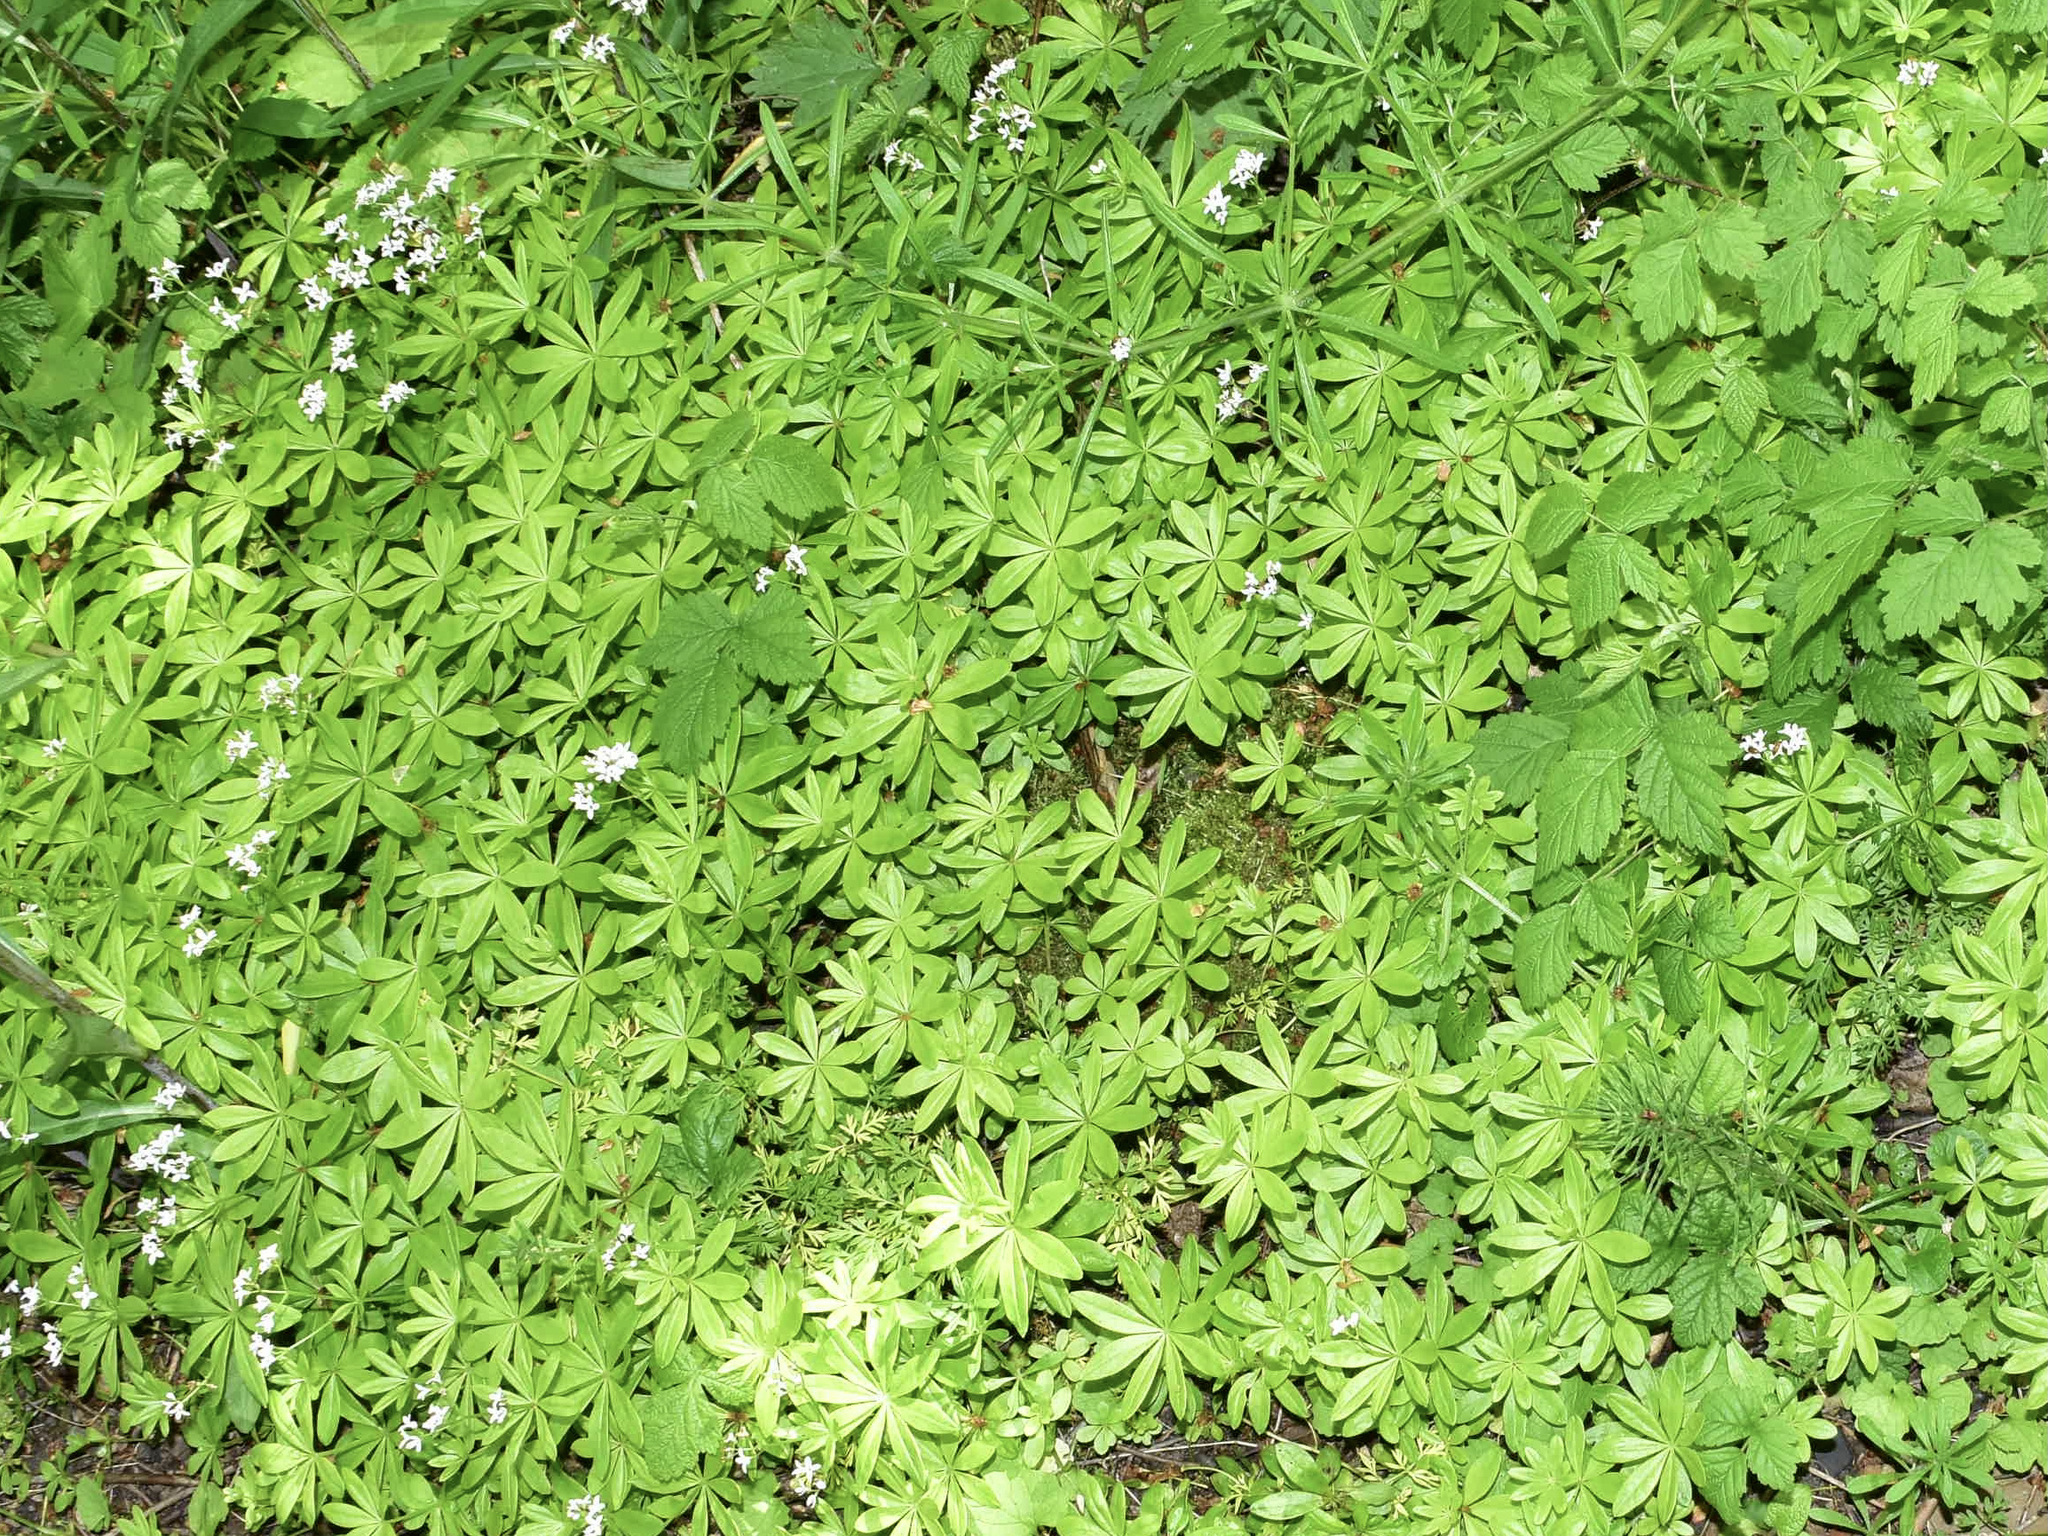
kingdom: Plantae
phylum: Tracheophyta
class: Magnoliopsida
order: Gentianales
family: Rubiaceae
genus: Galium
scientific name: Galium odoratum
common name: Sweet woodruff
